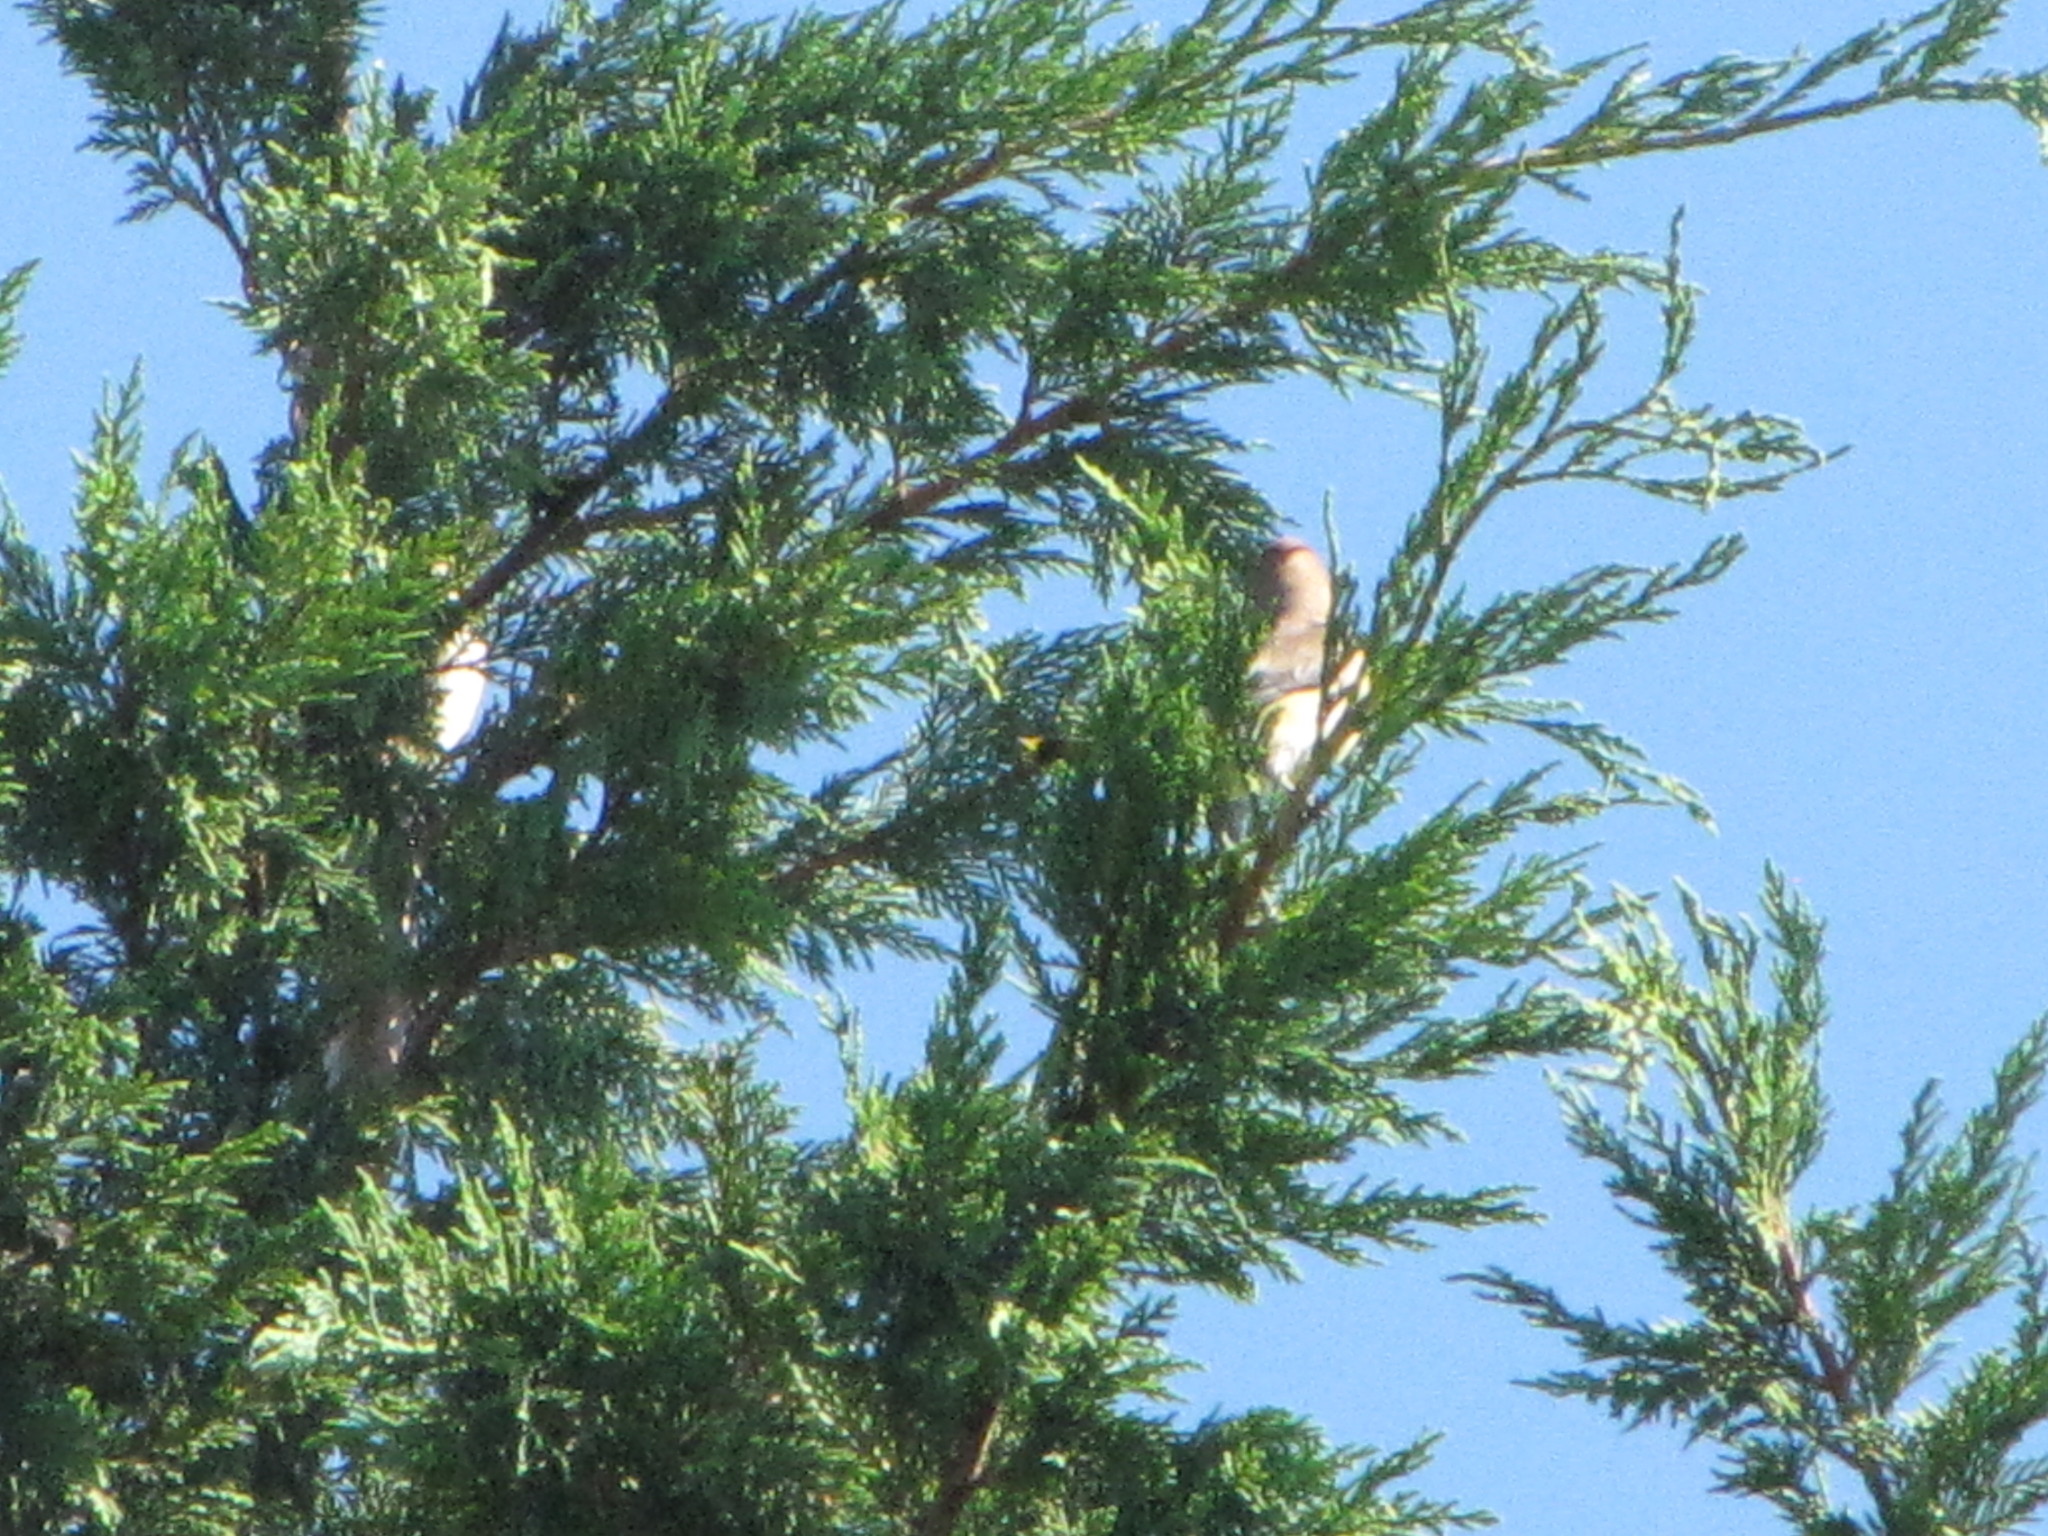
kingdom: Animalia
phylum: Chordata
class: Aves
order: Passeriformes
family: Bombycillidae
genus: Bombycilla
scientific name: Bombycilla cedrorum
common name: Cedar waxwing
